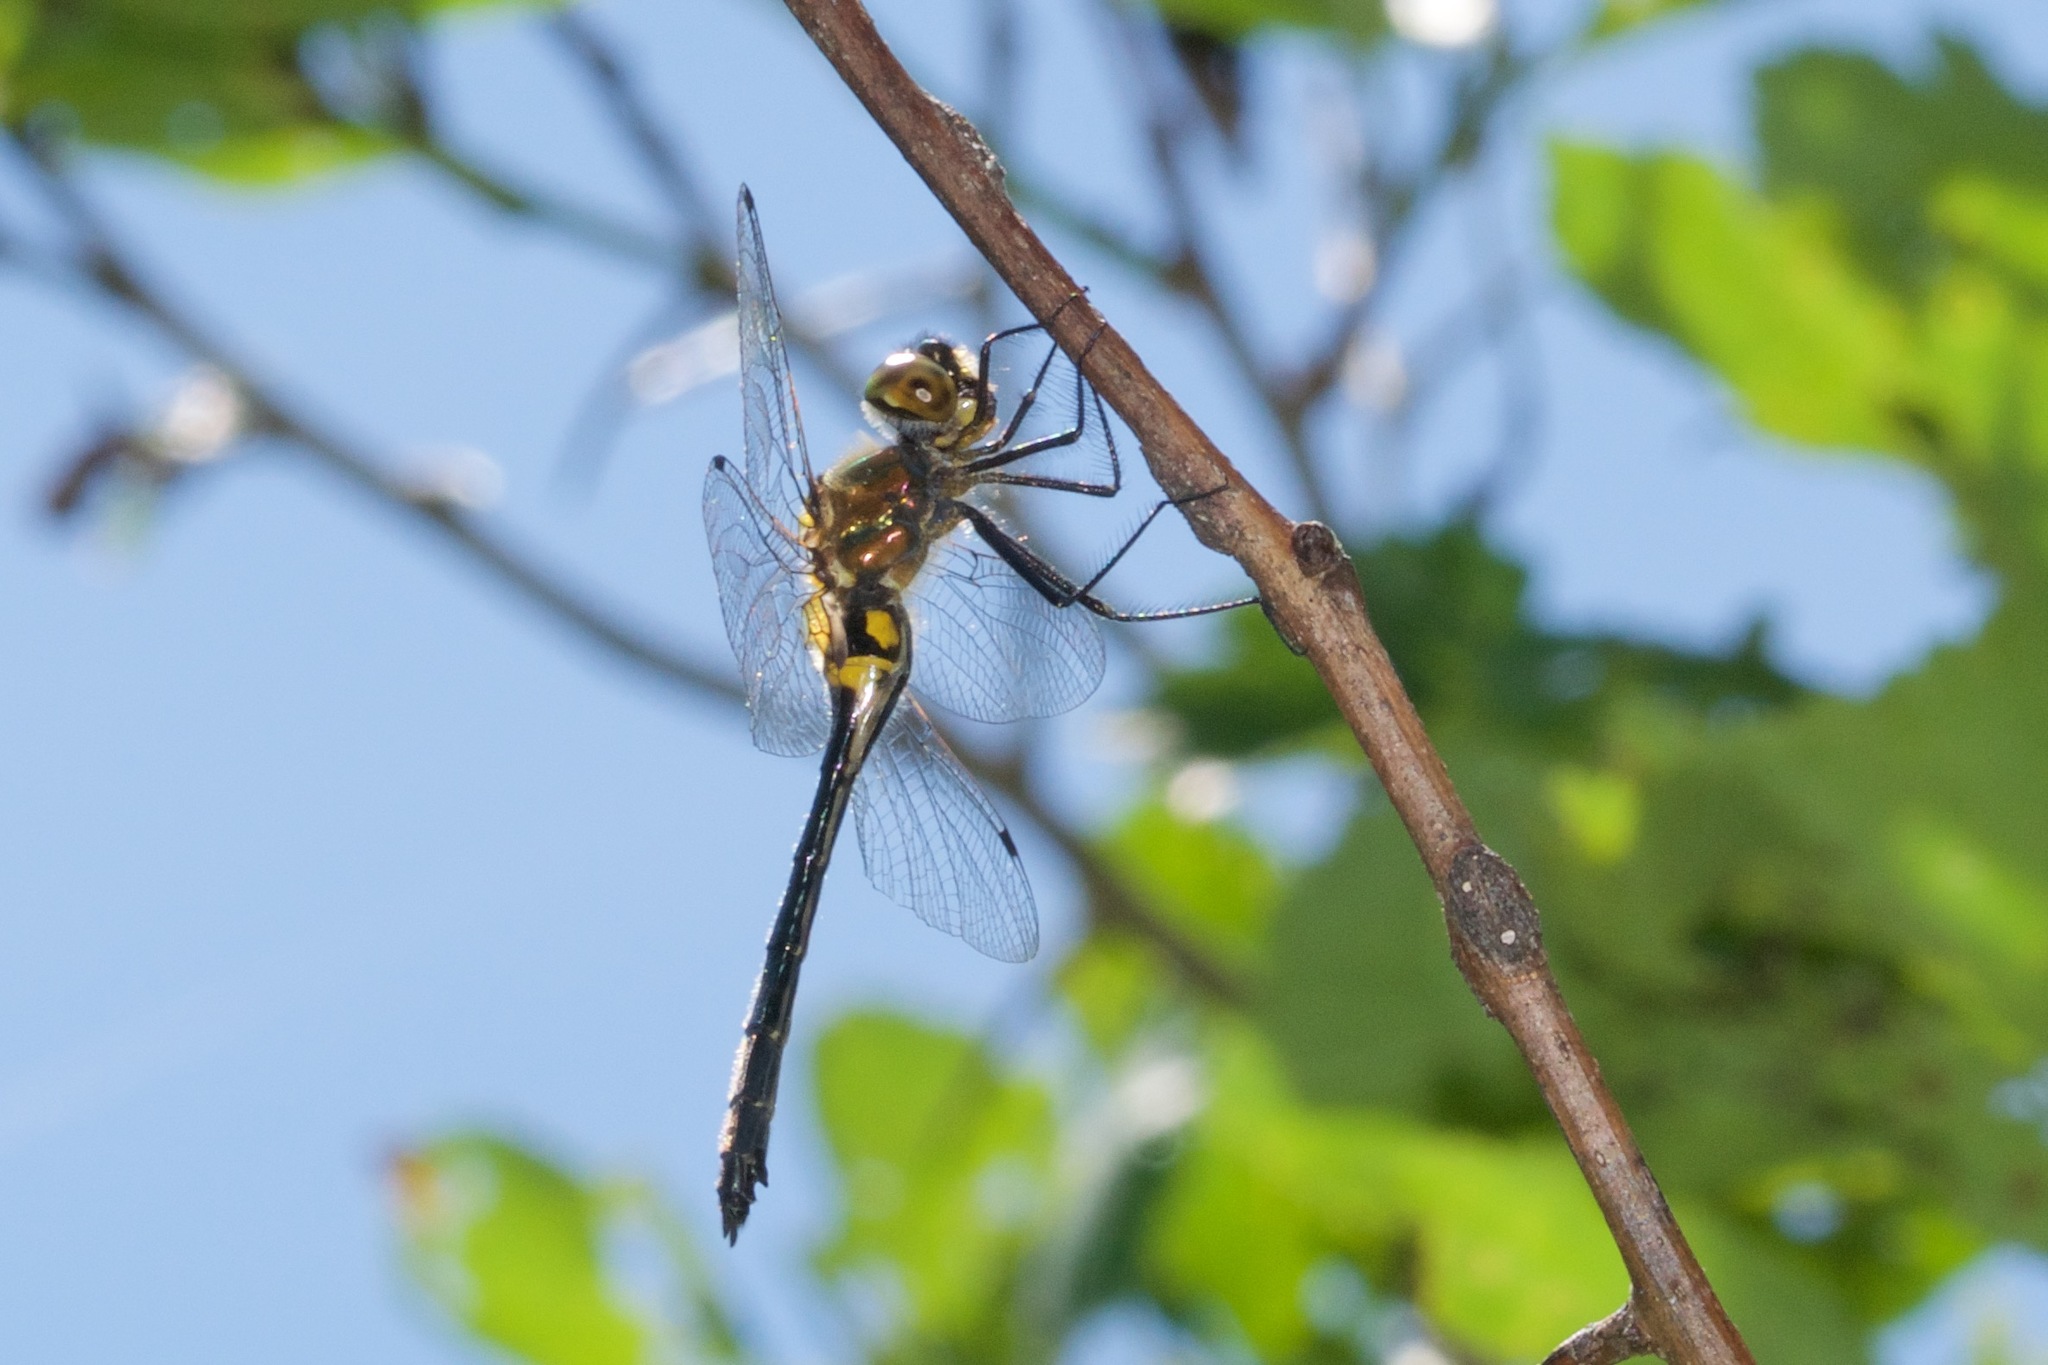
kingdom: Animalia
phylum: Arthropoda
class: Insecta
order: Odonata
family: Corduliidae
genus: Dorocordulia
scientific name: Dorocordulia libera
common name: Racket-tailed emerald
